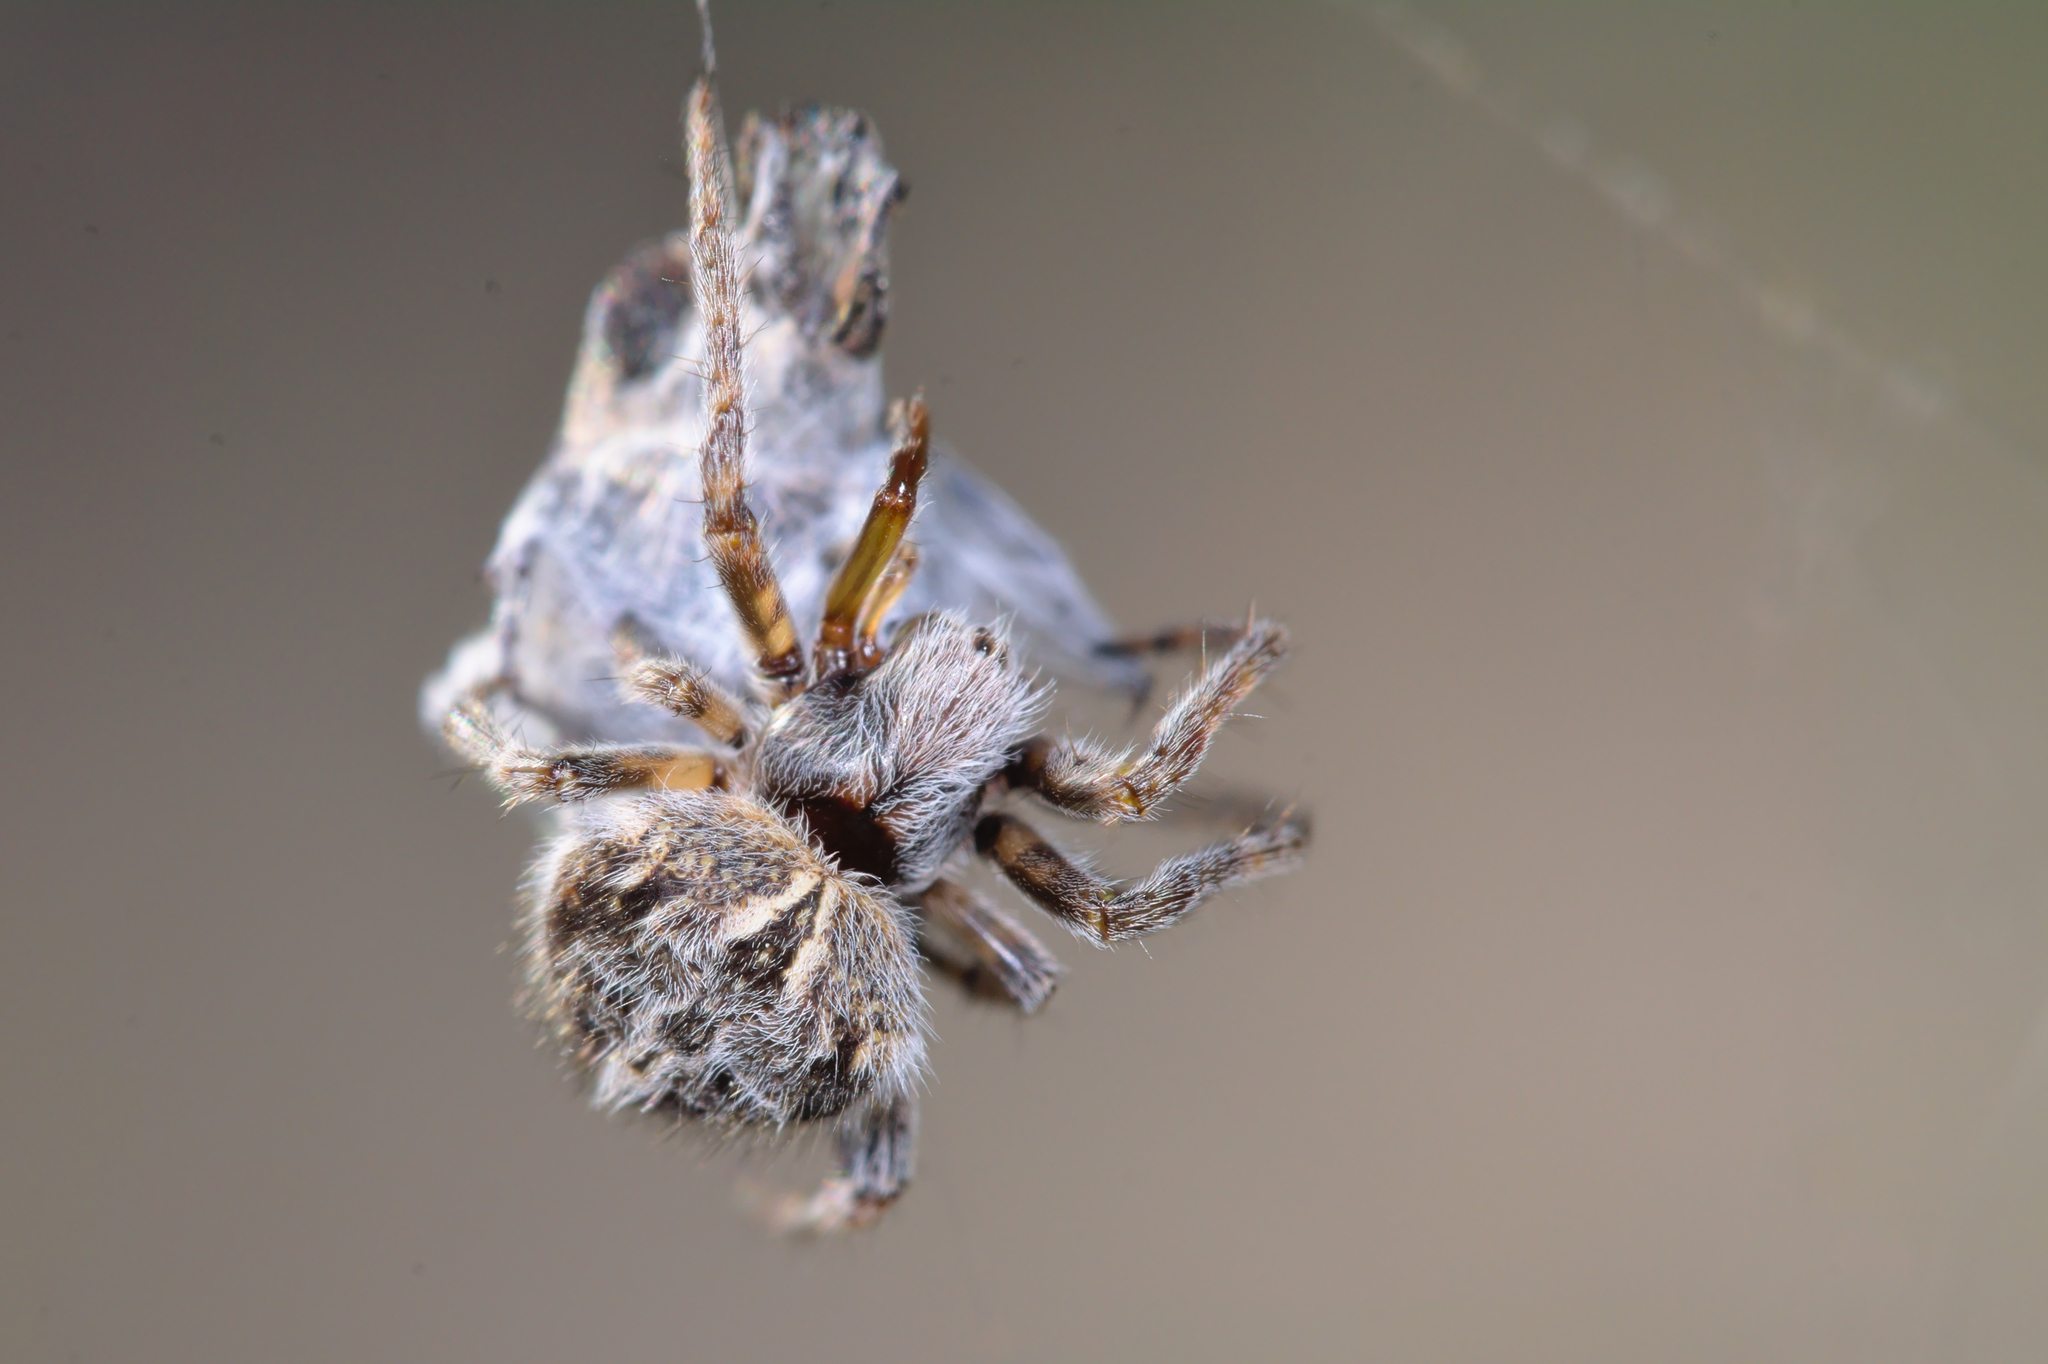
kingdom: Animalia
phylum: Arthropoda
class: Arachnida
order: Araneae
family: Araneidae
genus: Agalenatea
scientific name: Agalenatea redii
